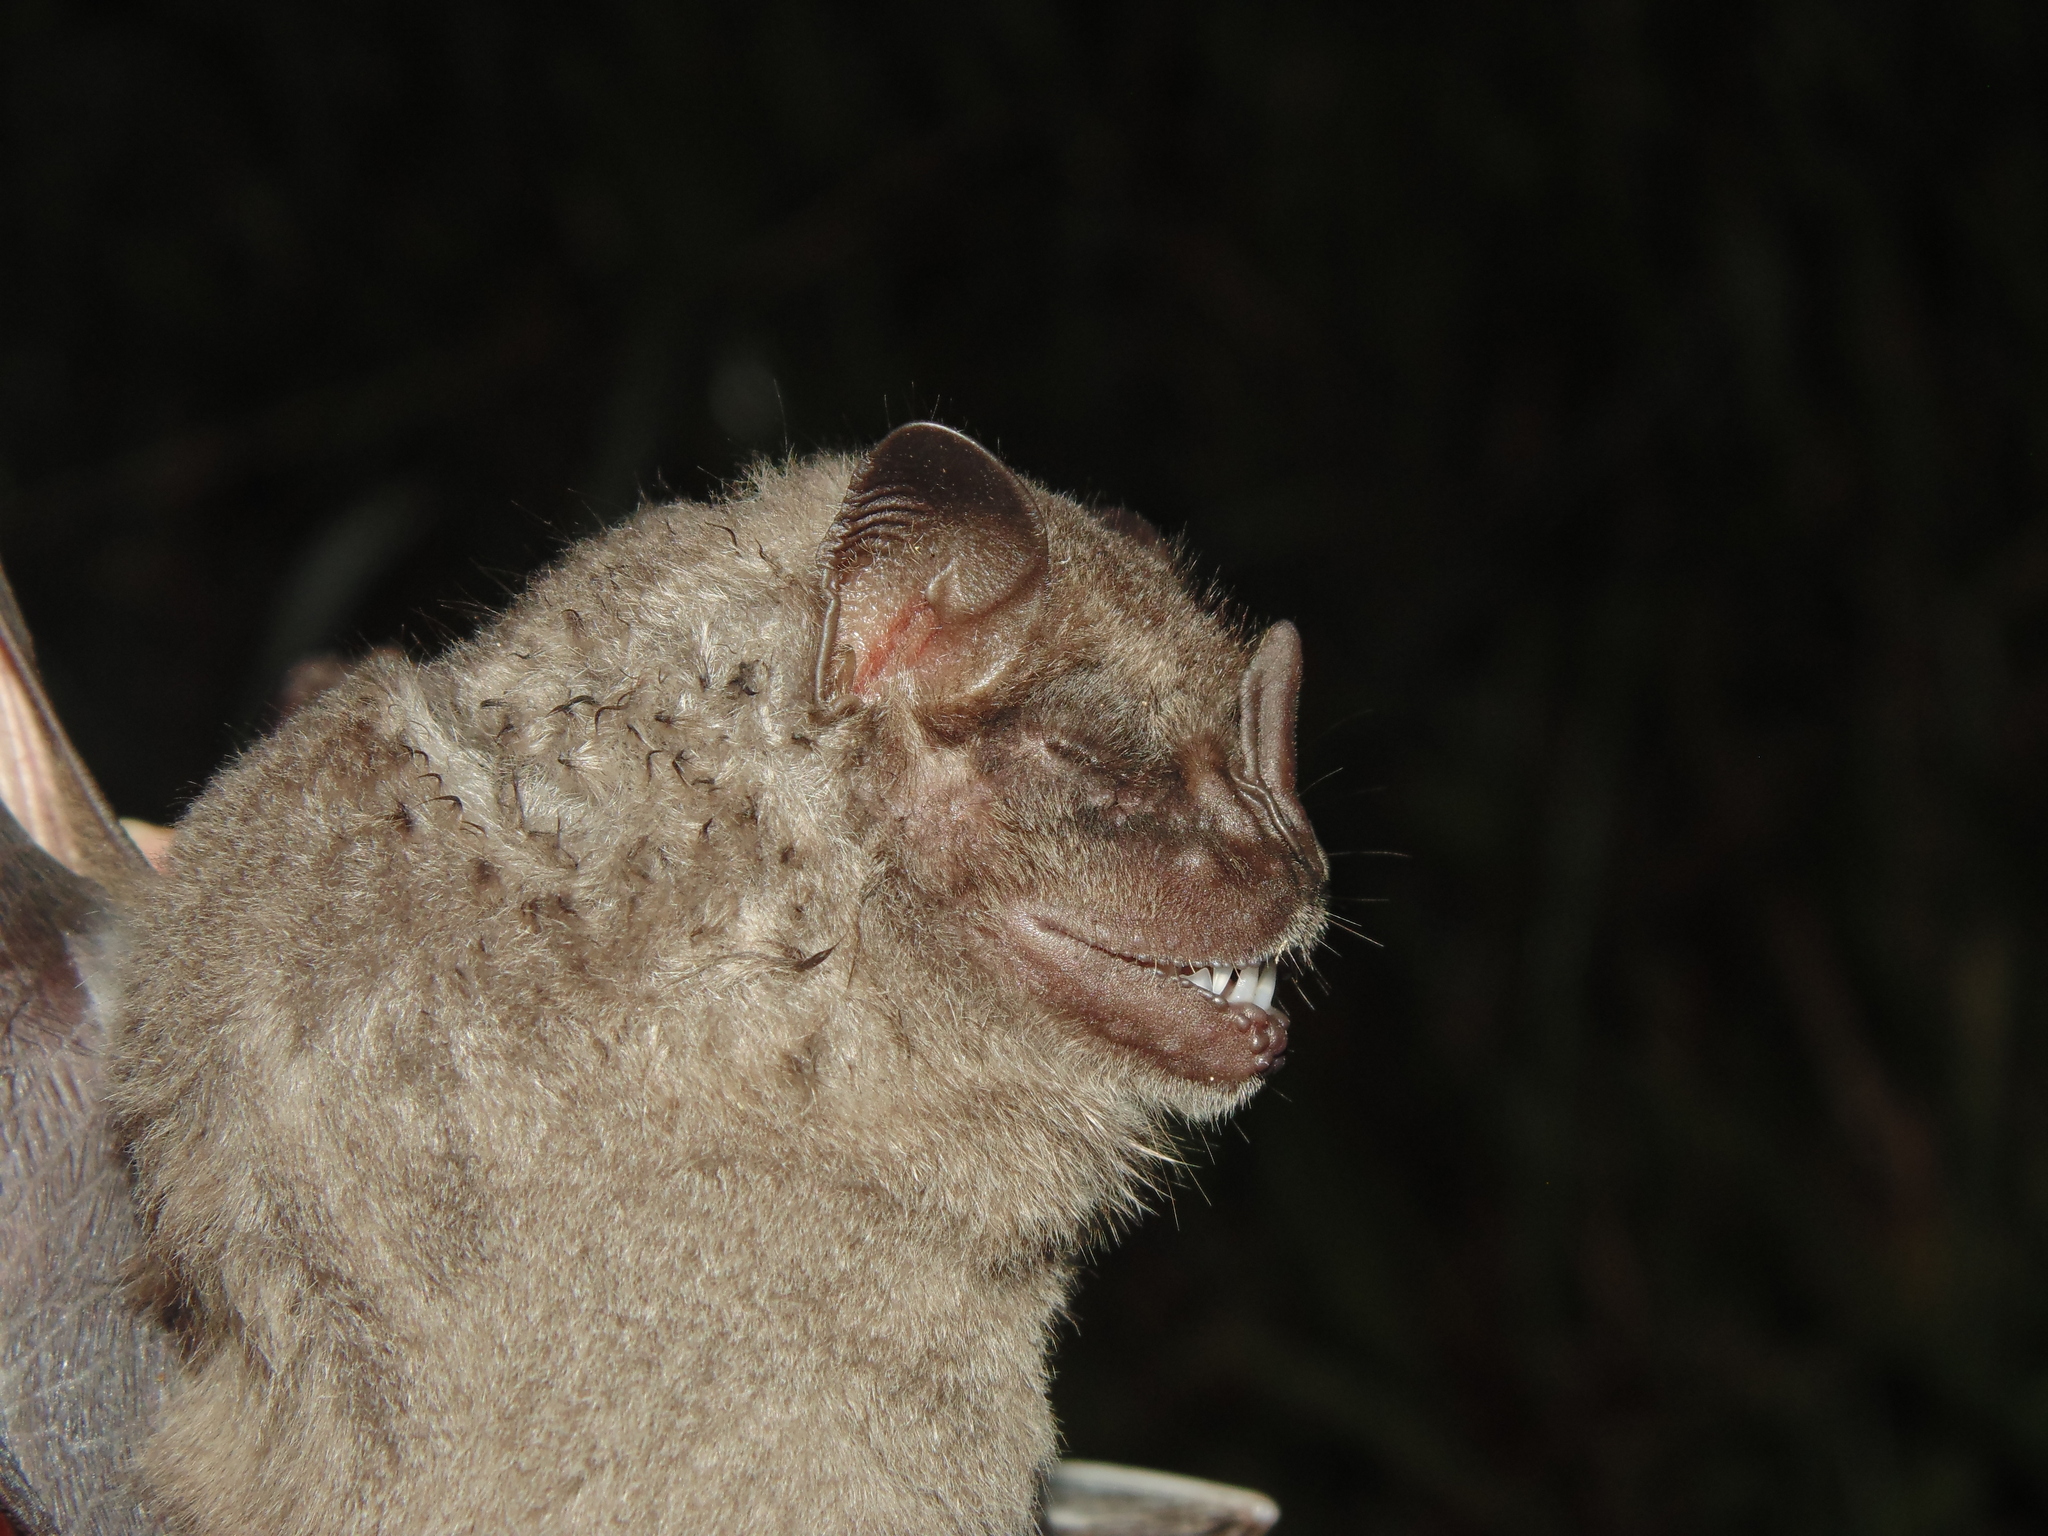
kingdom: Animalia
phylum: Chordata
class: Mammalia
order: Chiroptera
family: Phyllostomidae
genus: Artibeus
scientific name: Artibeus fimbriatus
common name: Fringed fruit-eating bat
